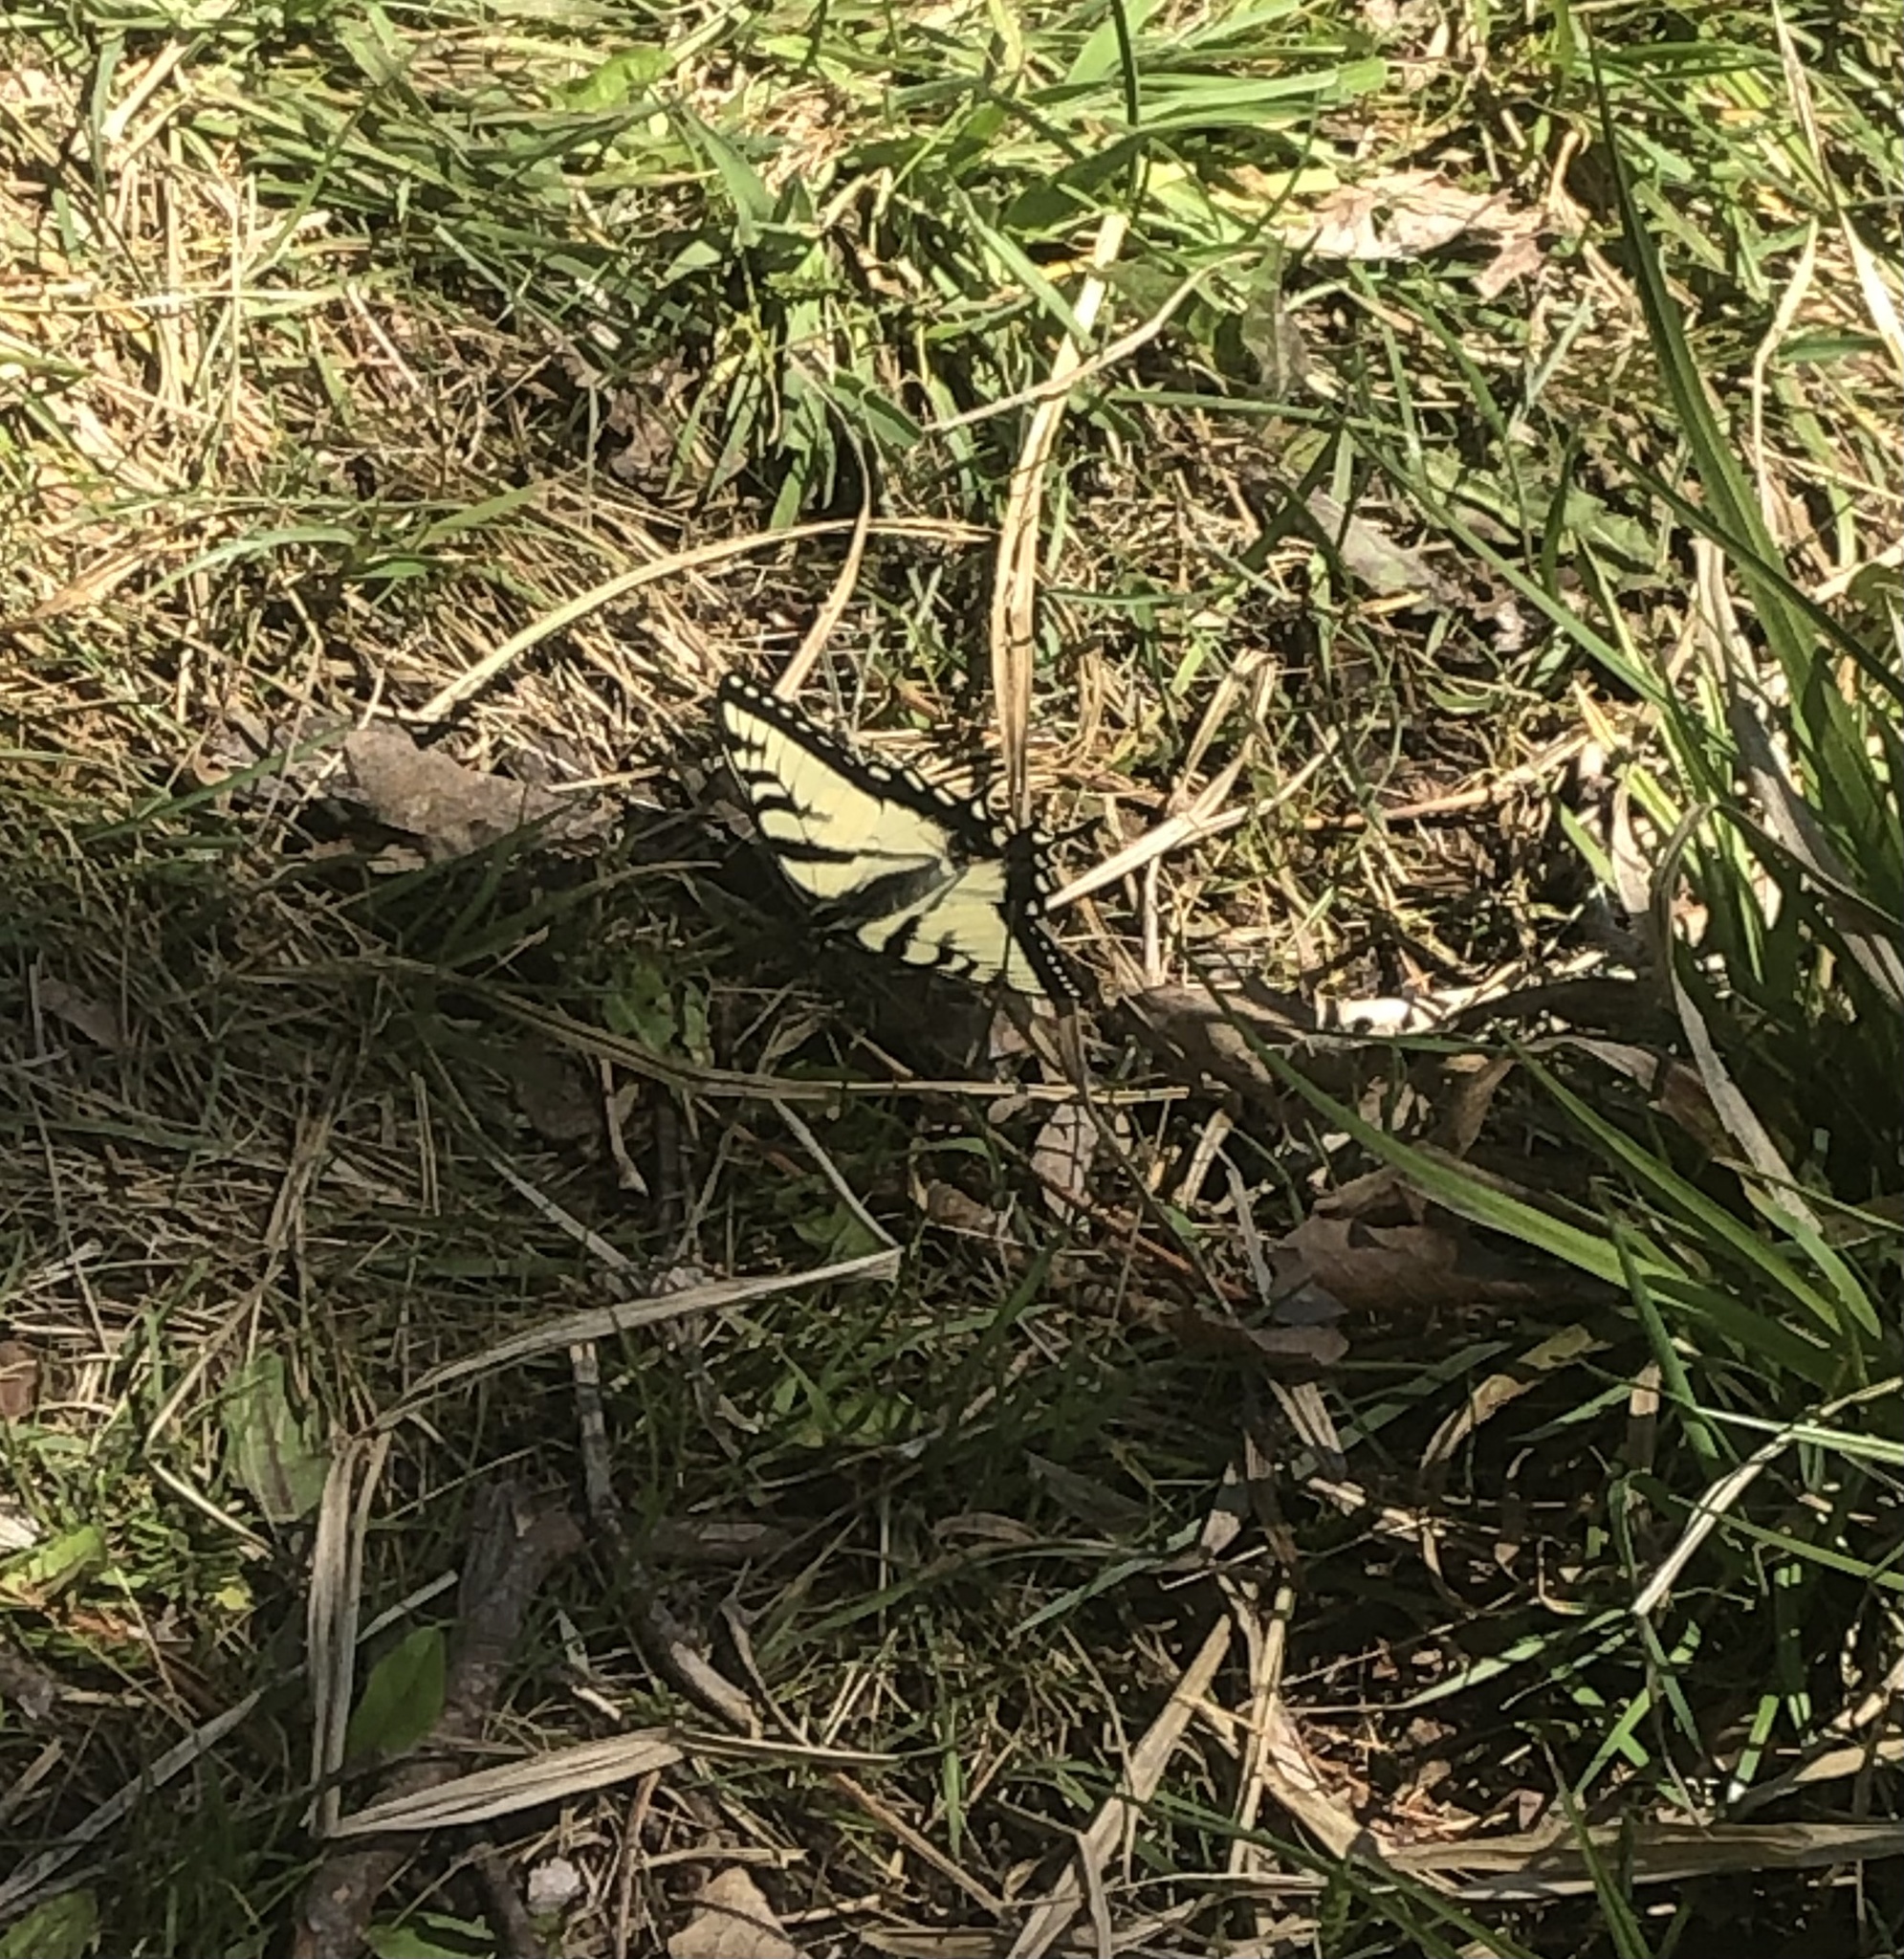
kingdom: Animalia
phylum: Arthropoda
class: Insecta
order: Lepidoptera
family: Papilionidae
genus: Papilio
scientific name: Papilio canadensis
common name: Canadian tiger swallowtail
